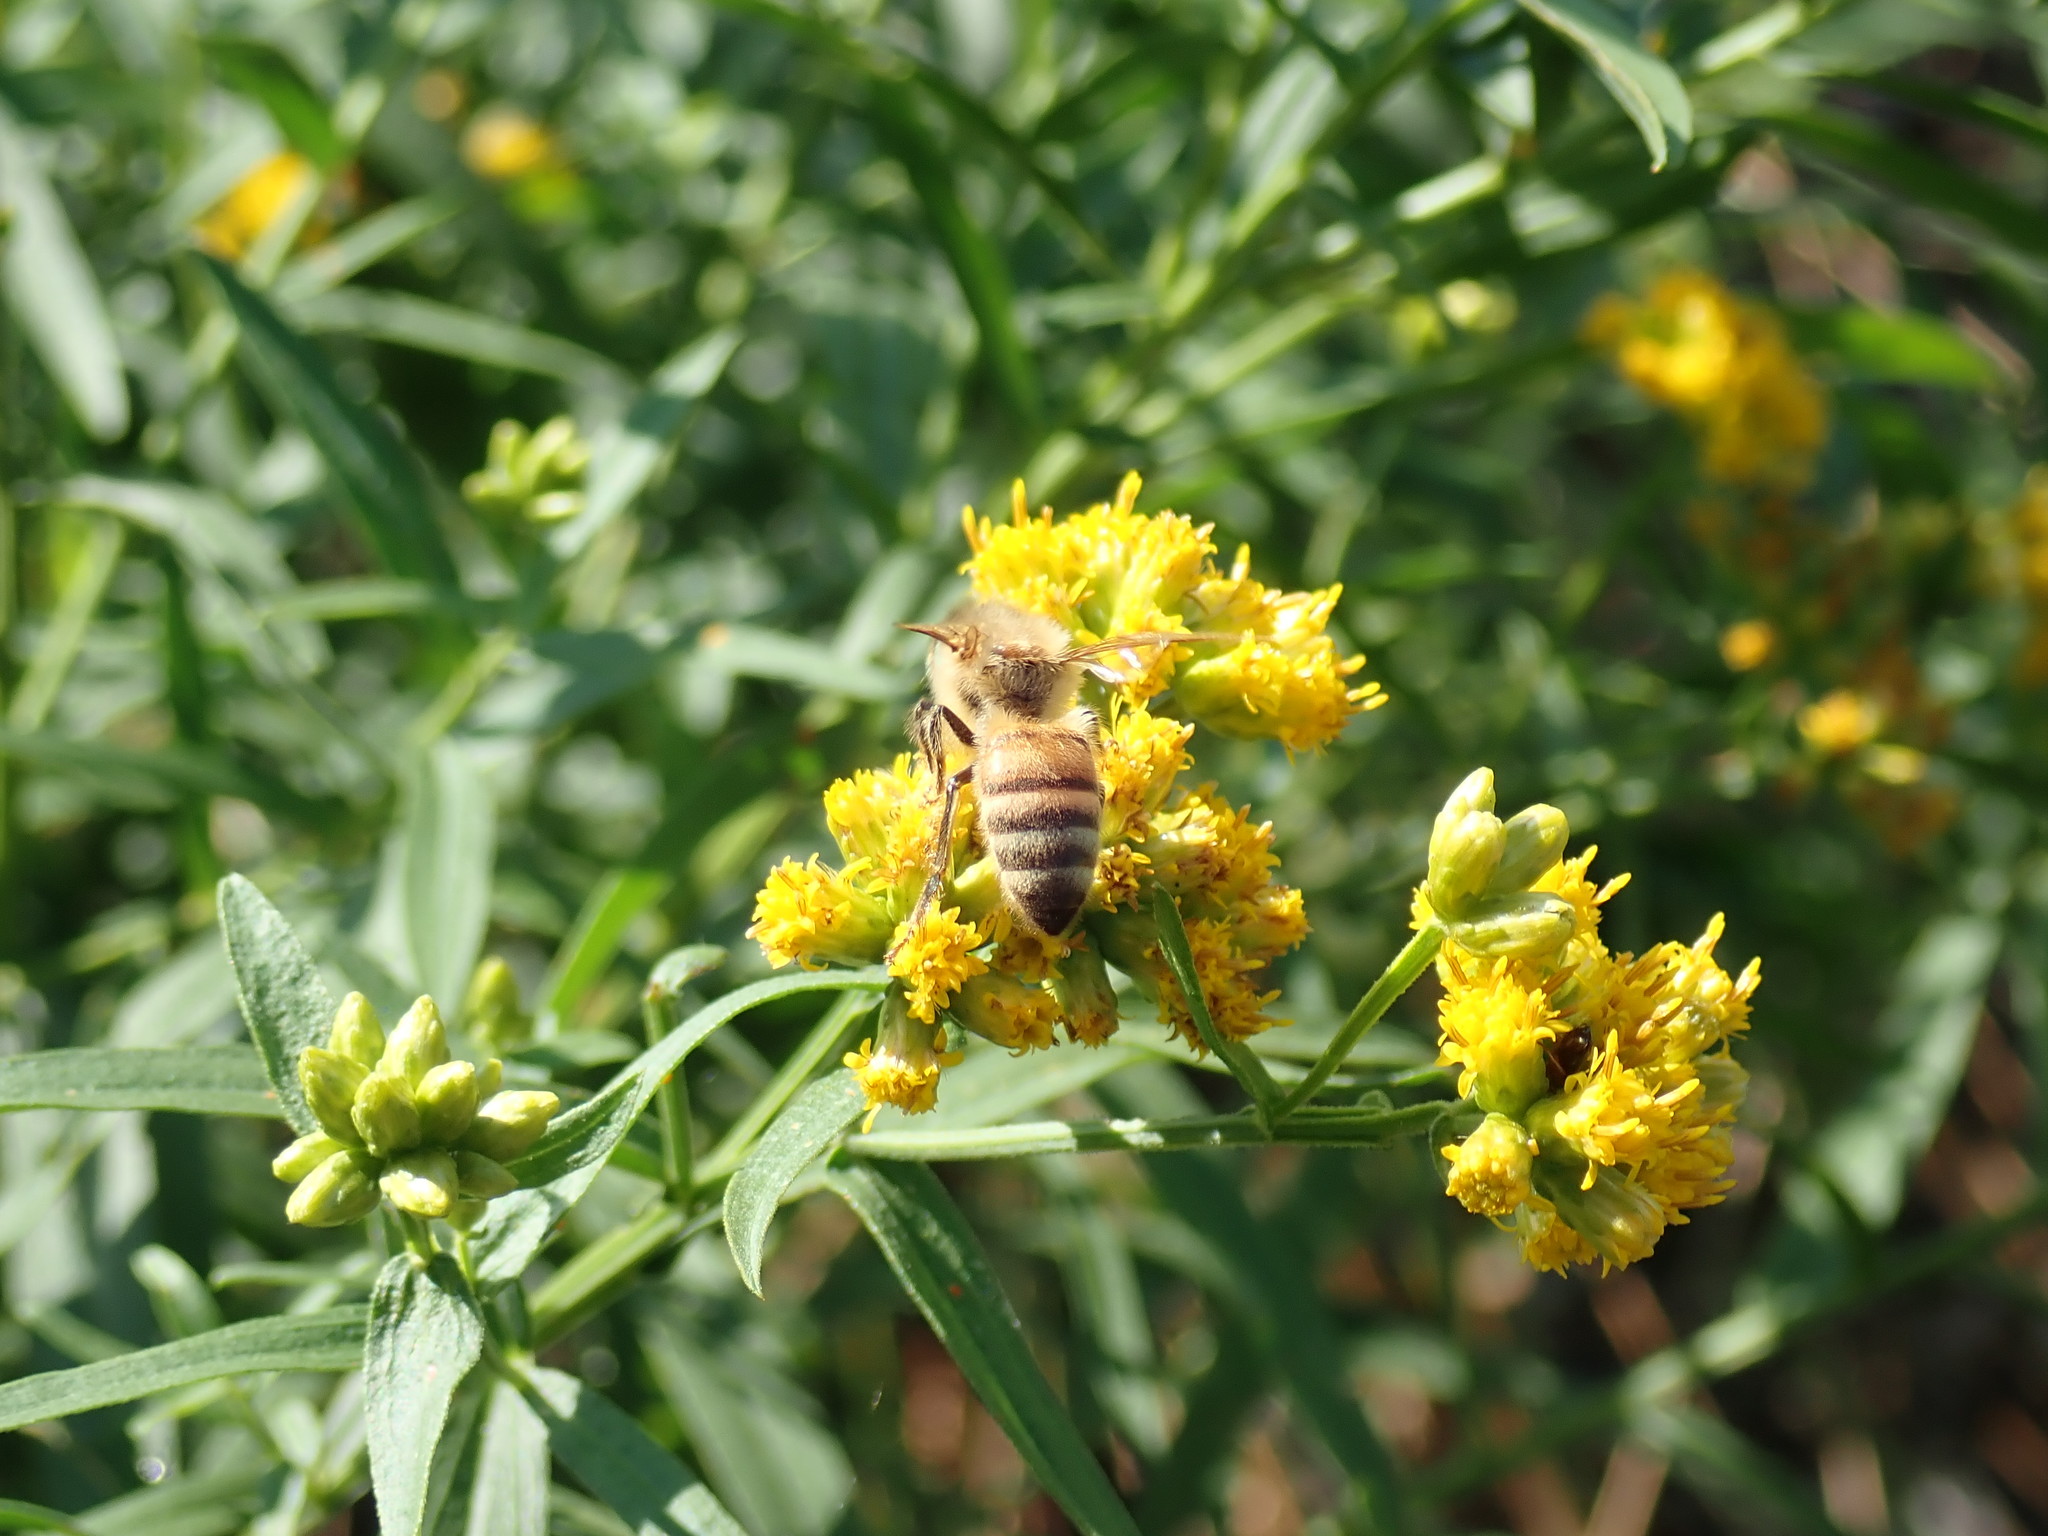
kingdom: Animalia
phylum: Arthropoda
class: Insecta
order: Hymenoptera
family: Apidae
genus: Apis
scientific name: Apis mellifera
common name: Honey bee
